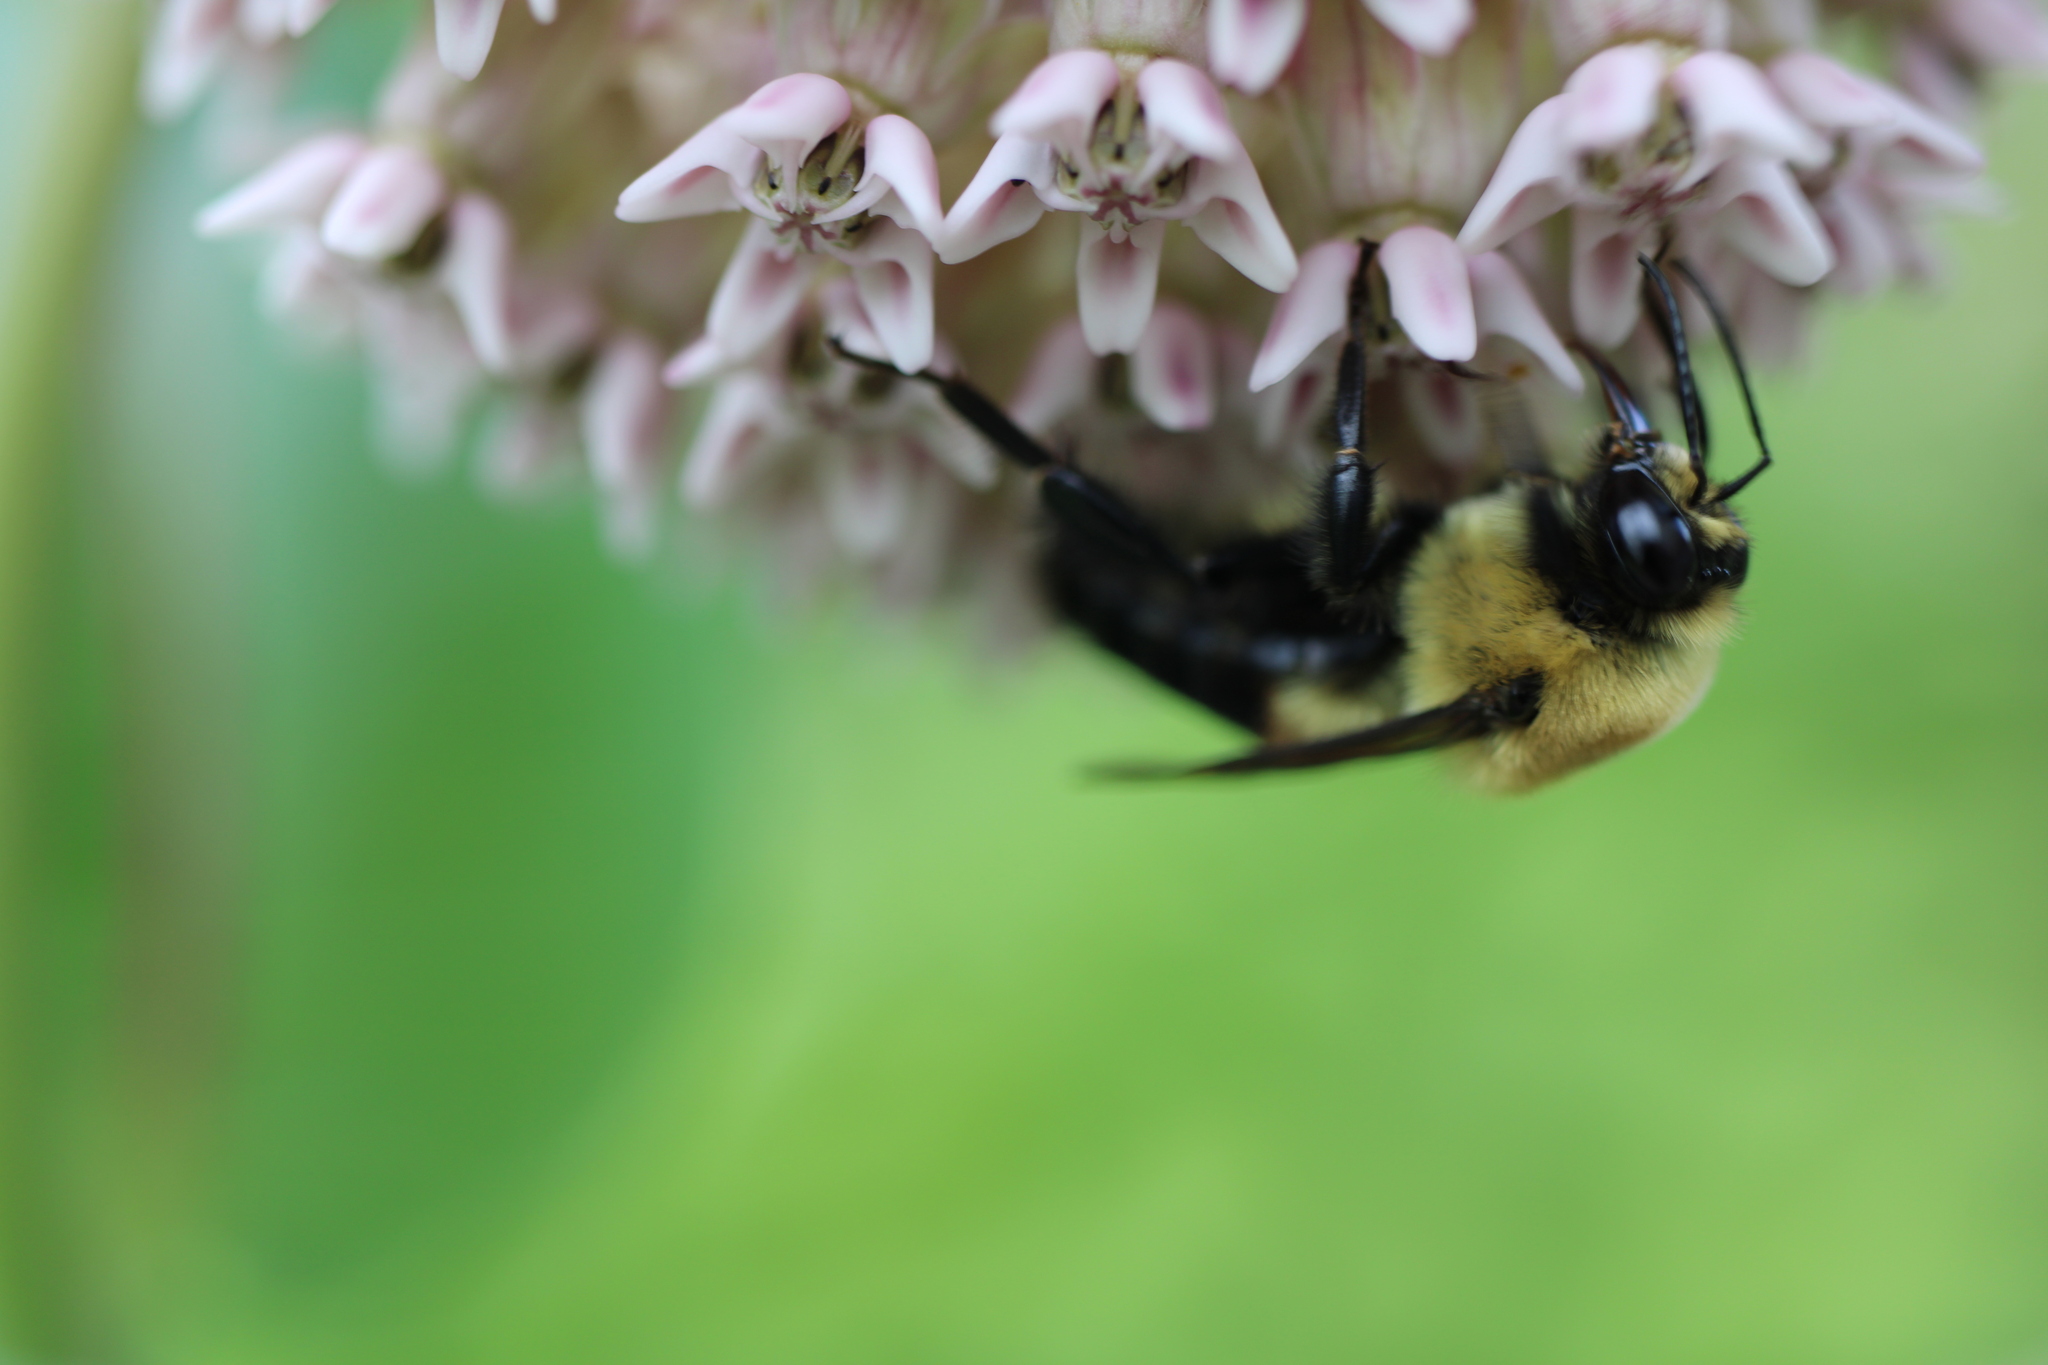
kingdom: Animalia
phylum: Arthropoda
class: Insecta
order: Hymenoptera
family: Apidae
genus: Bombus
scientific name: Bombus griseocollis
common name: Brown-belted bumble bee
